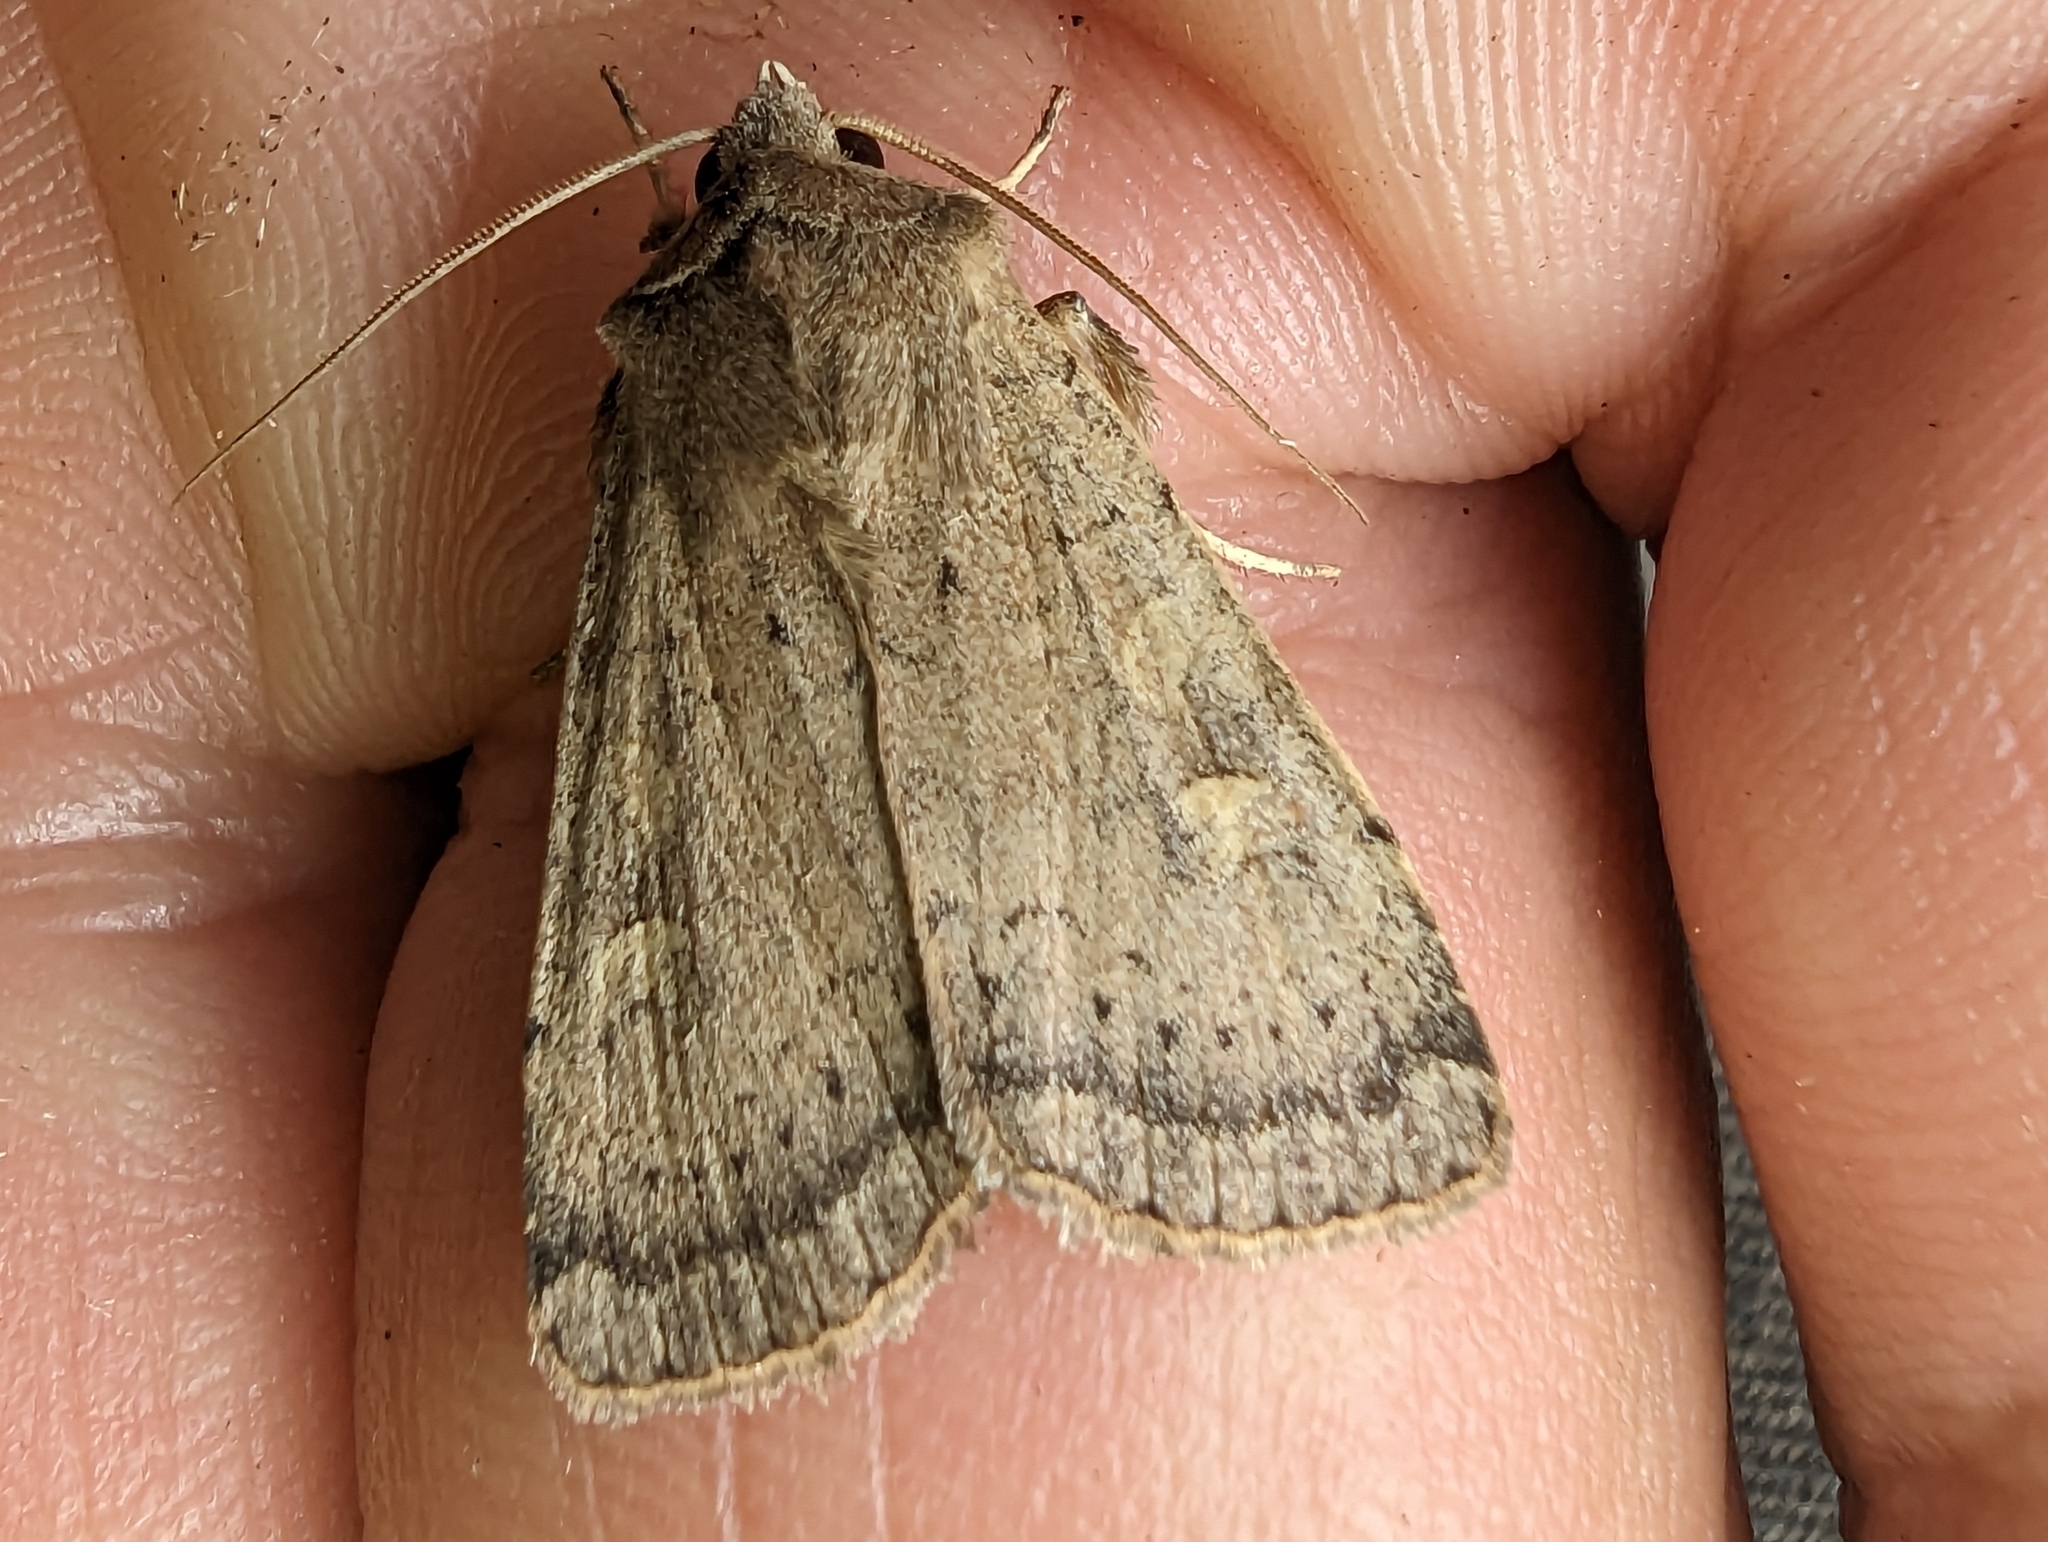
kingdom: Animalia
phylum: Arthropoda
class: Insecta
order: Lepidoptera
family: Noctuidae
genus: Xestia
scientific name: Xestia xanthographa
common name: Square-spot rustic
